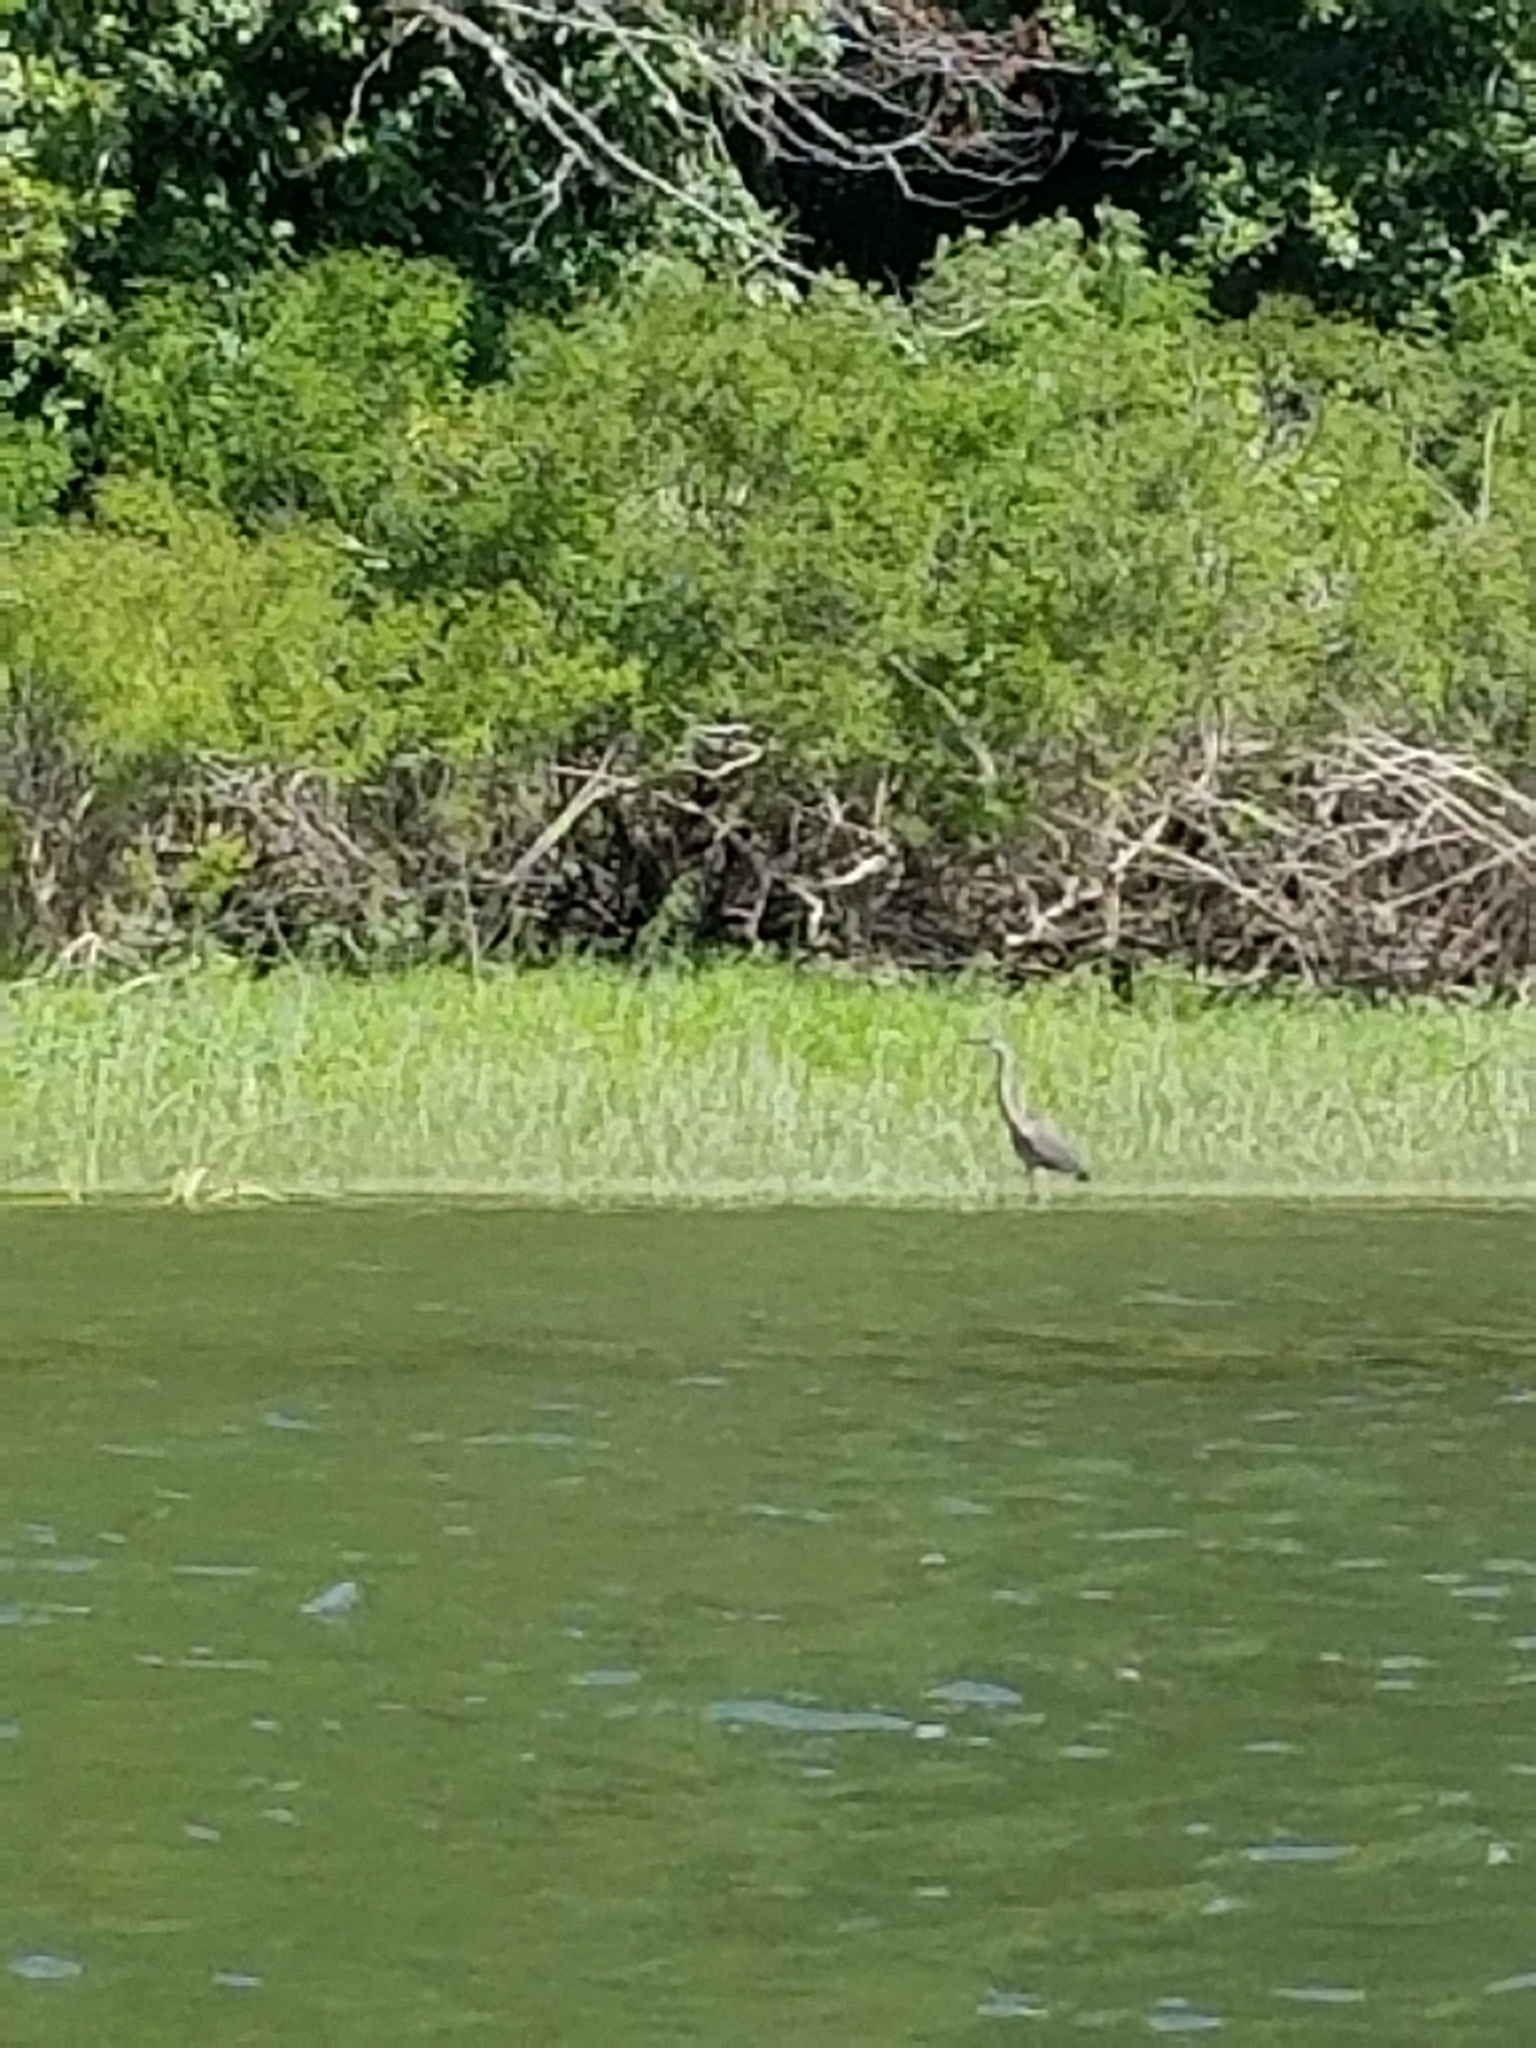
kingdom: Animalia
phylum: Chordata
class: Aves
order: Pelecaniformes
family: Ardeidae
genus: Ardea
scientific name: Ardea herodias
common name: Great blue heron
